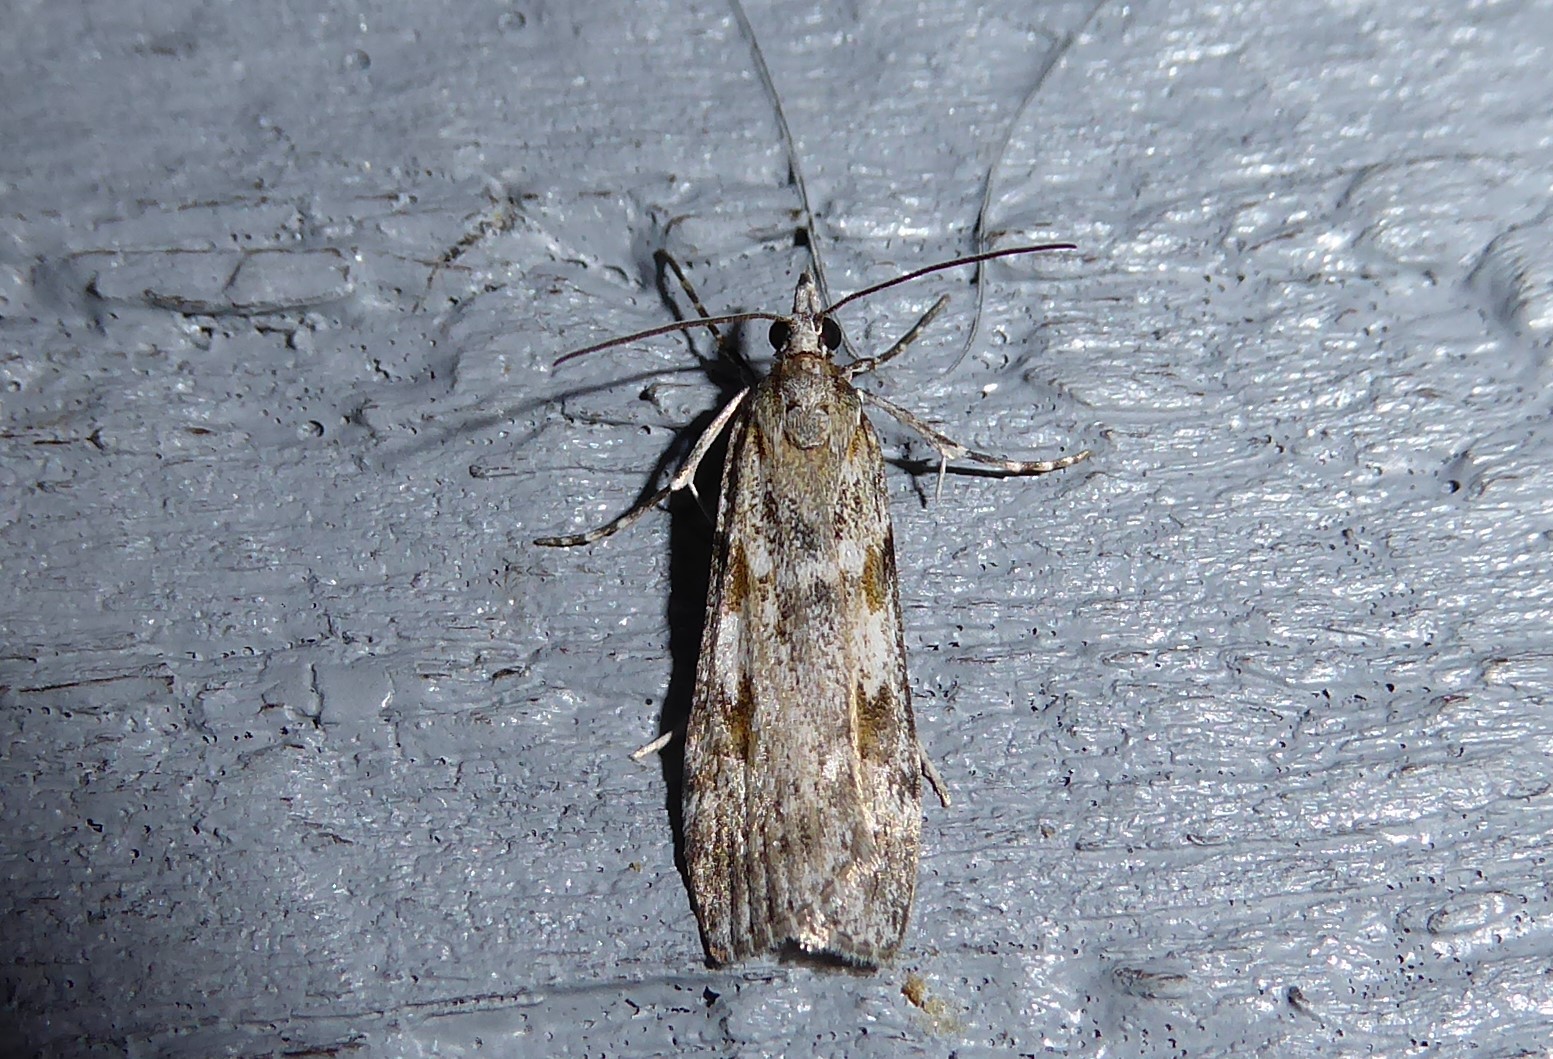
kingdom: Animalia
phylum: Arthropoda
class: Insecta
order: Lepidoptera
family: Crambidae
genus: Scoparia
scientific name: Scoparia halopis
